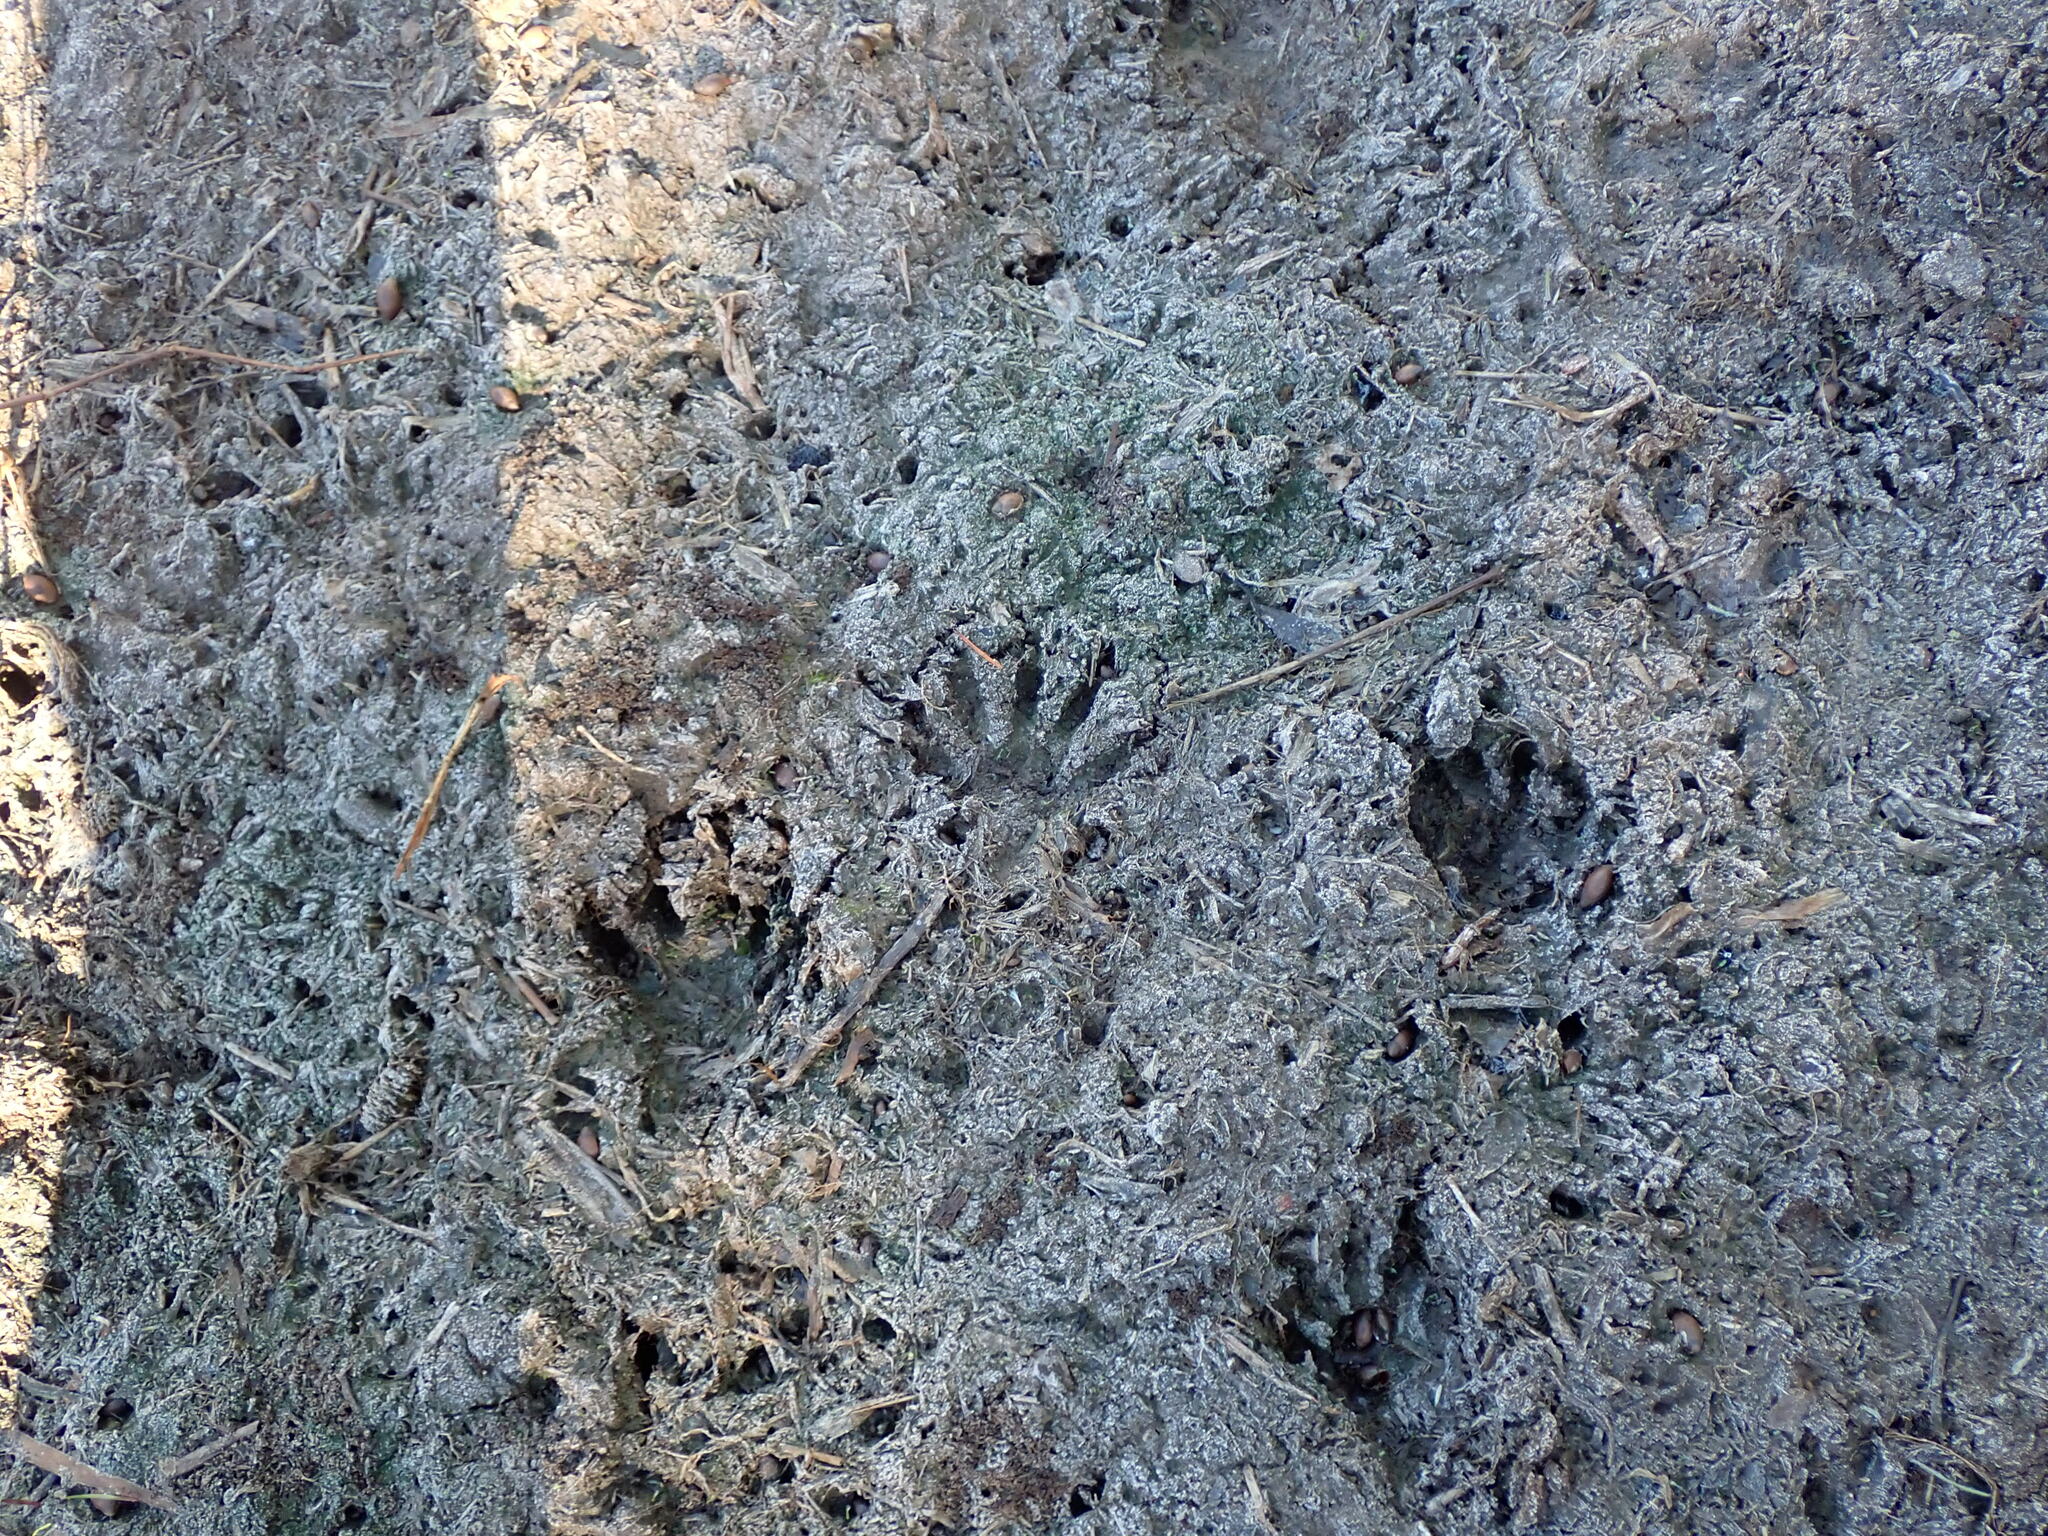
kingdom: Animalia
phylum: Chordata
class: Mammalia
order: Carnivora
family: Procyonidae
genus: Procyon
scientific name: Procyon lotor
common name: Raccoon
